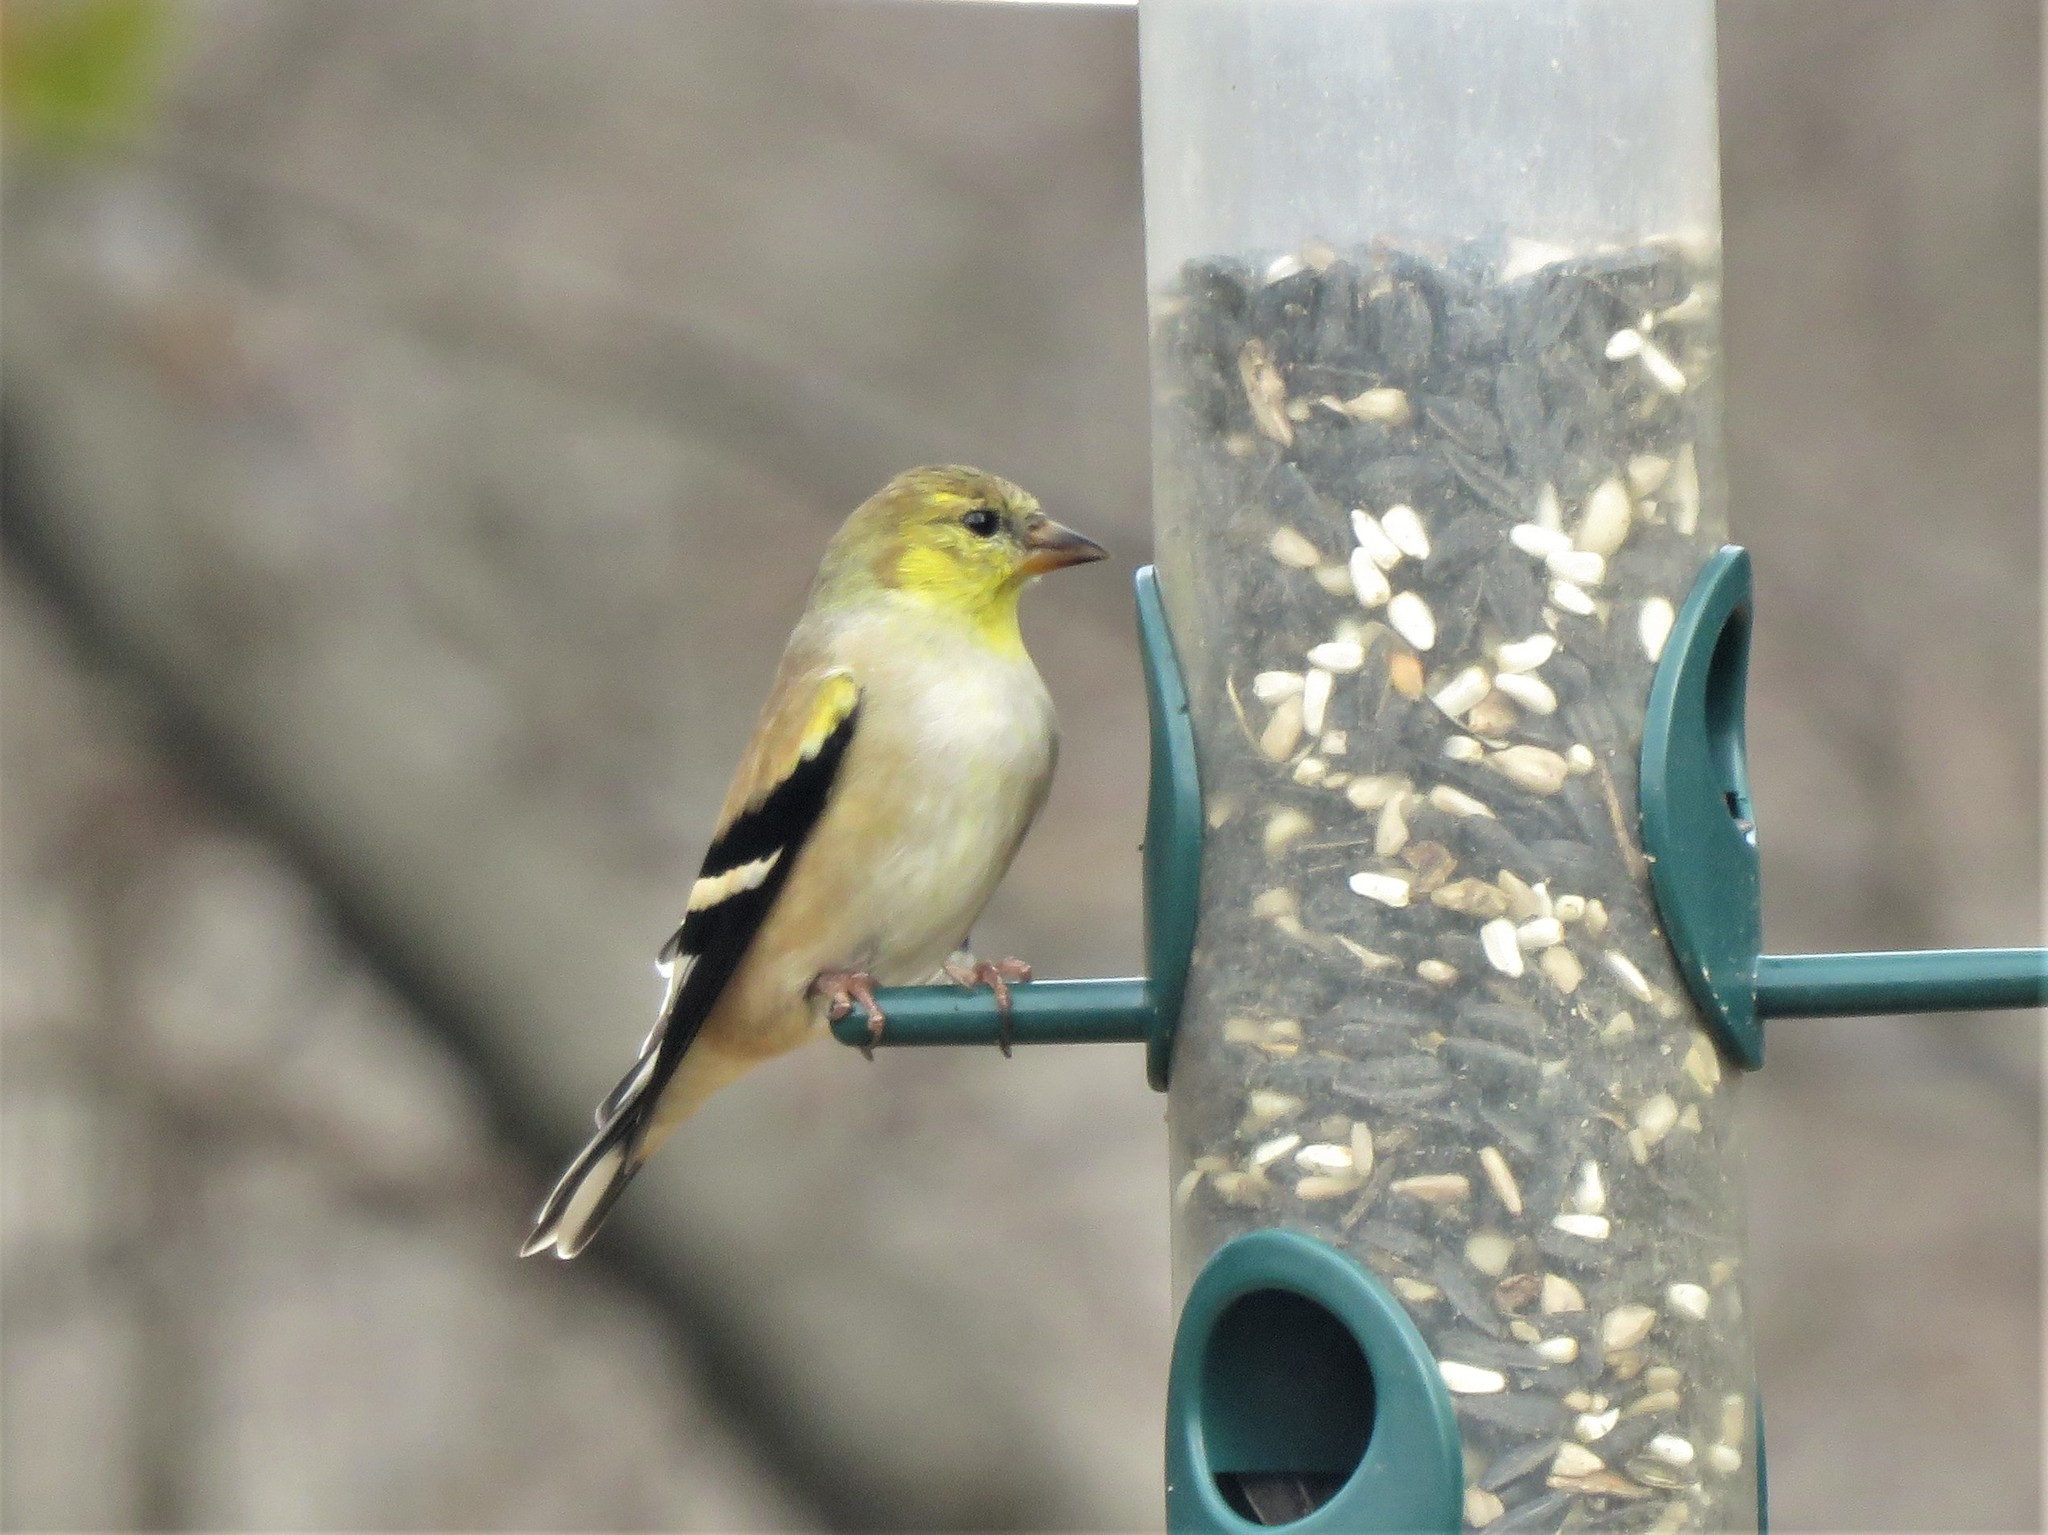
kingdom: Animalia
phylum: Chordata
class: Aves
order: Passeriformes
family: Fringillidae
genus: Spinus
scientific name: Spinus tristis
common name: American goldfinch
